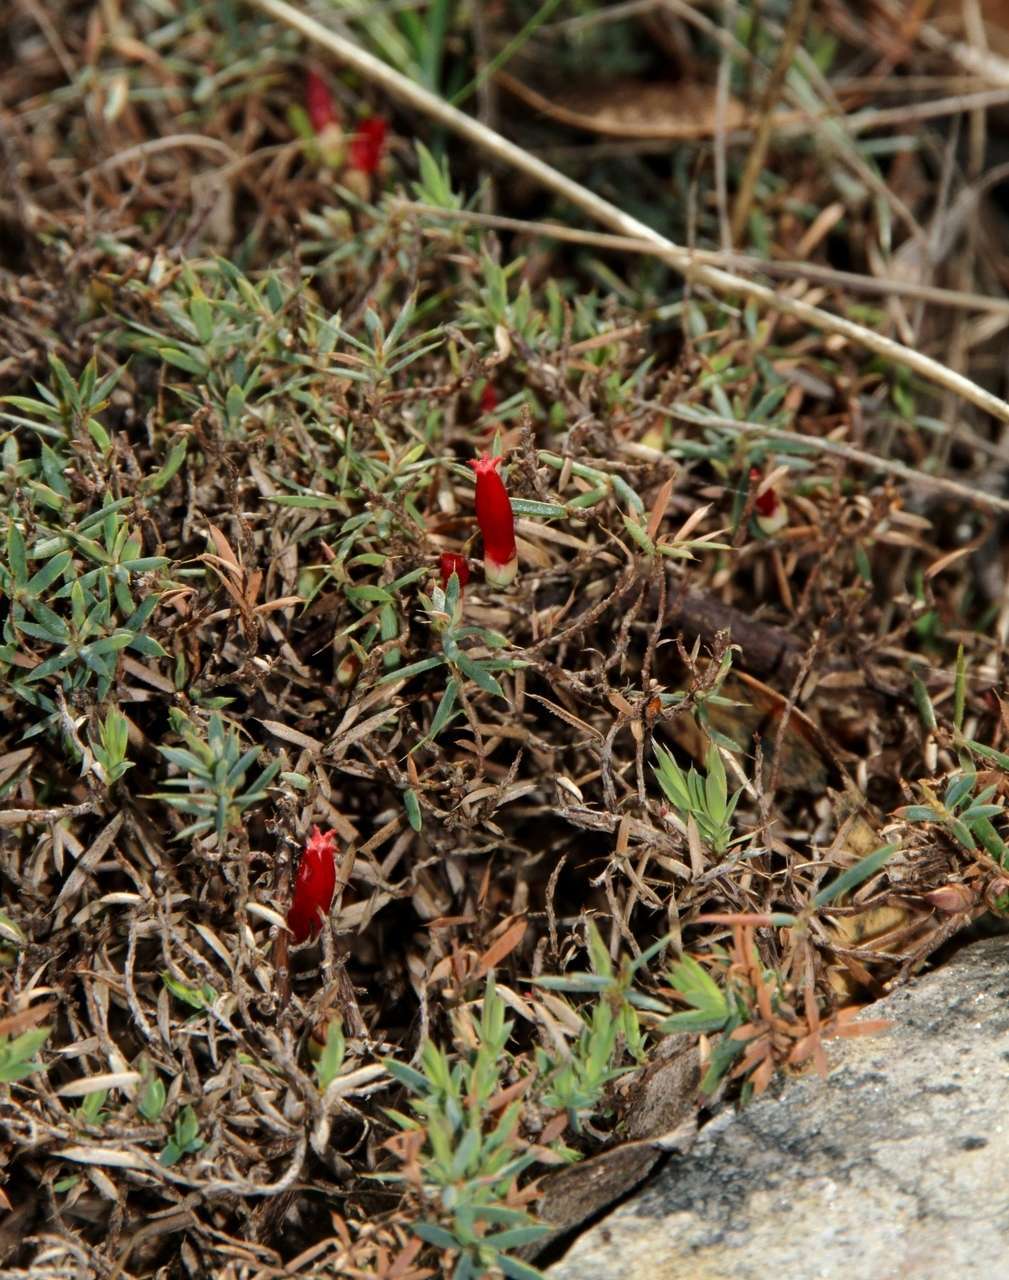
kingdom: Plantae
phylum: Tracheophyta
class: Magnoliopsida
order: Ericales
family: Ericaceae
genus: Styphelia
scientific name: Styphelia humifusa
